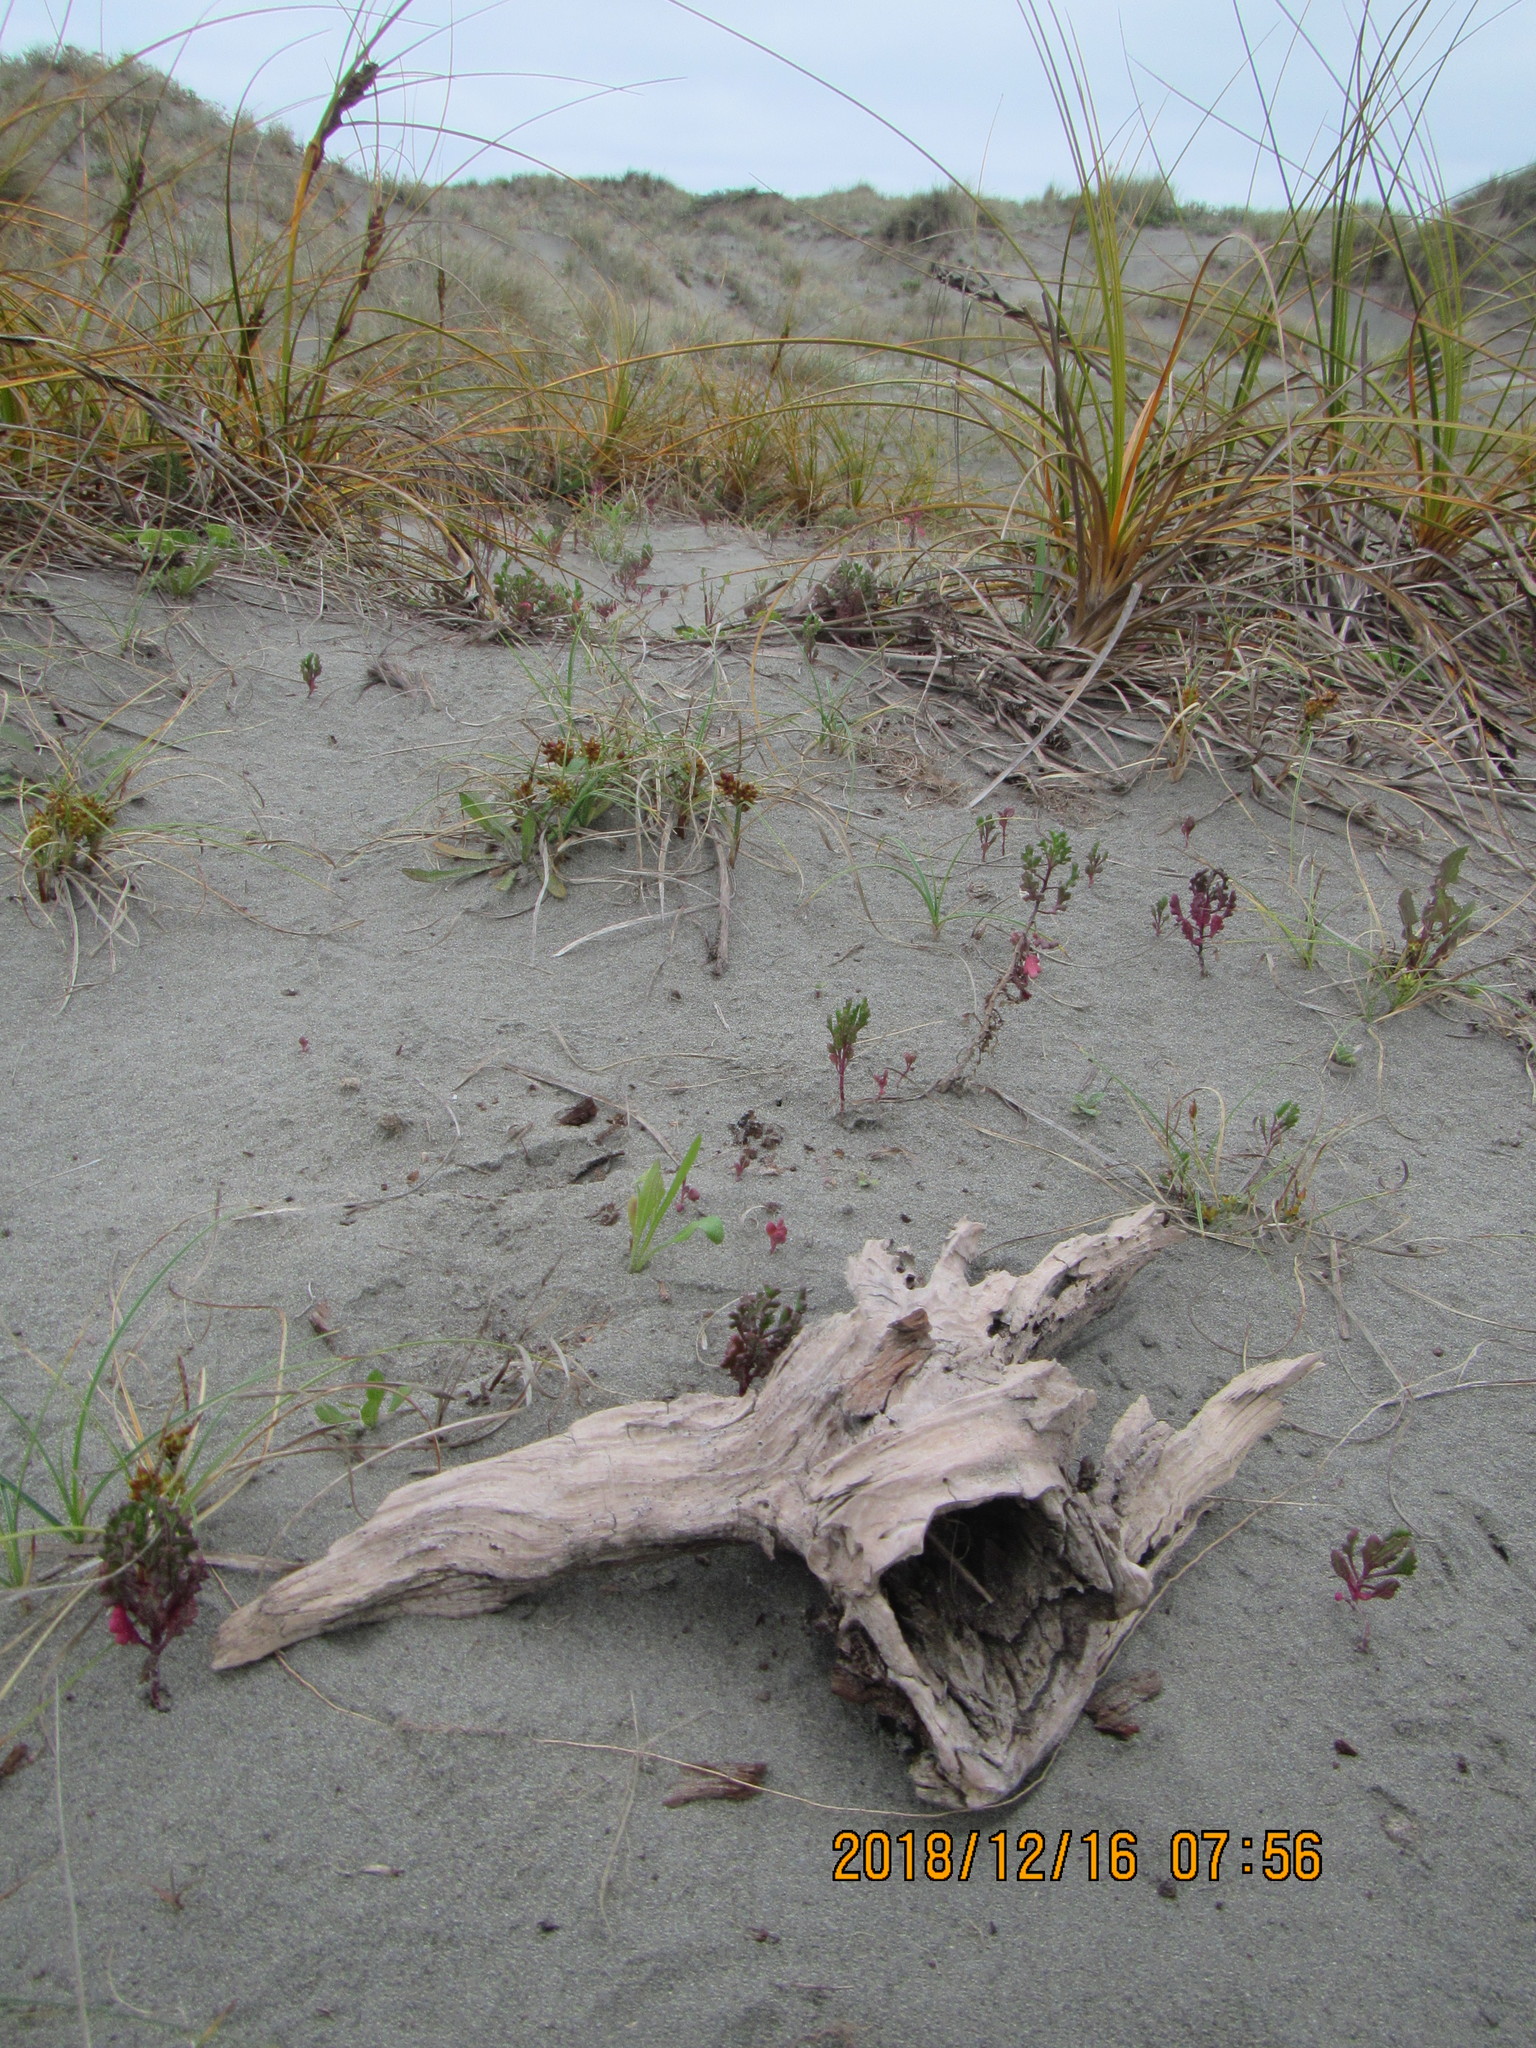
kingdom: Animalia
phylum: Arthropoda
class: Arachnida
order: Araneae
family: Theridiidae
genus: Latrodectus
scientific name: Latrodectus katipo
